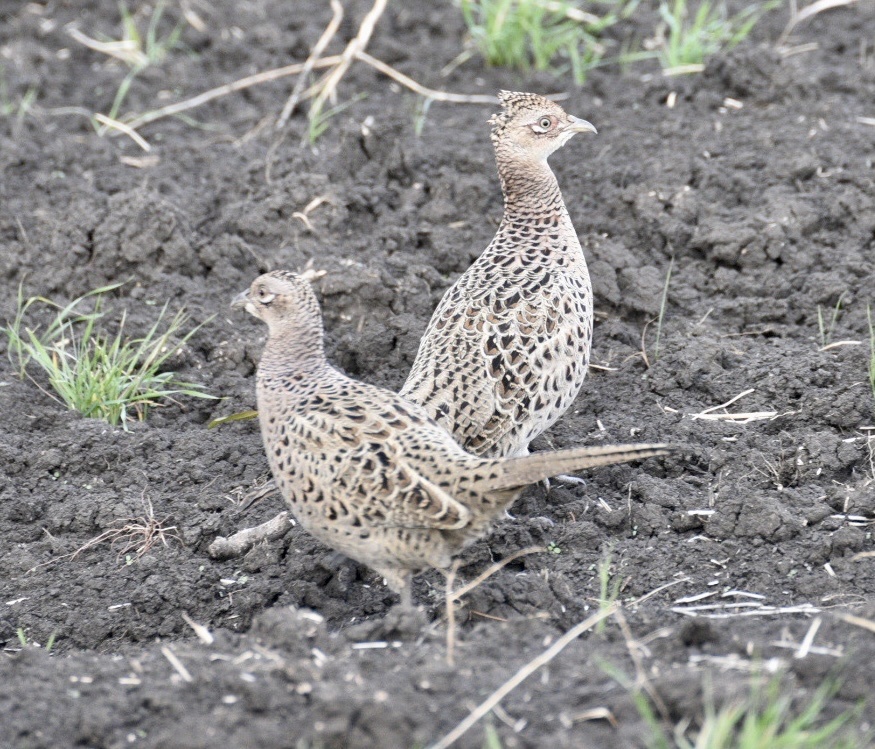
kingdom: Animalia
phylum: Chordata
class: Aves
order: Galliformes
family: Phasianidae
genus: Phasianus
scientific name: Phasianus colchicus
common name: Common pheasant
